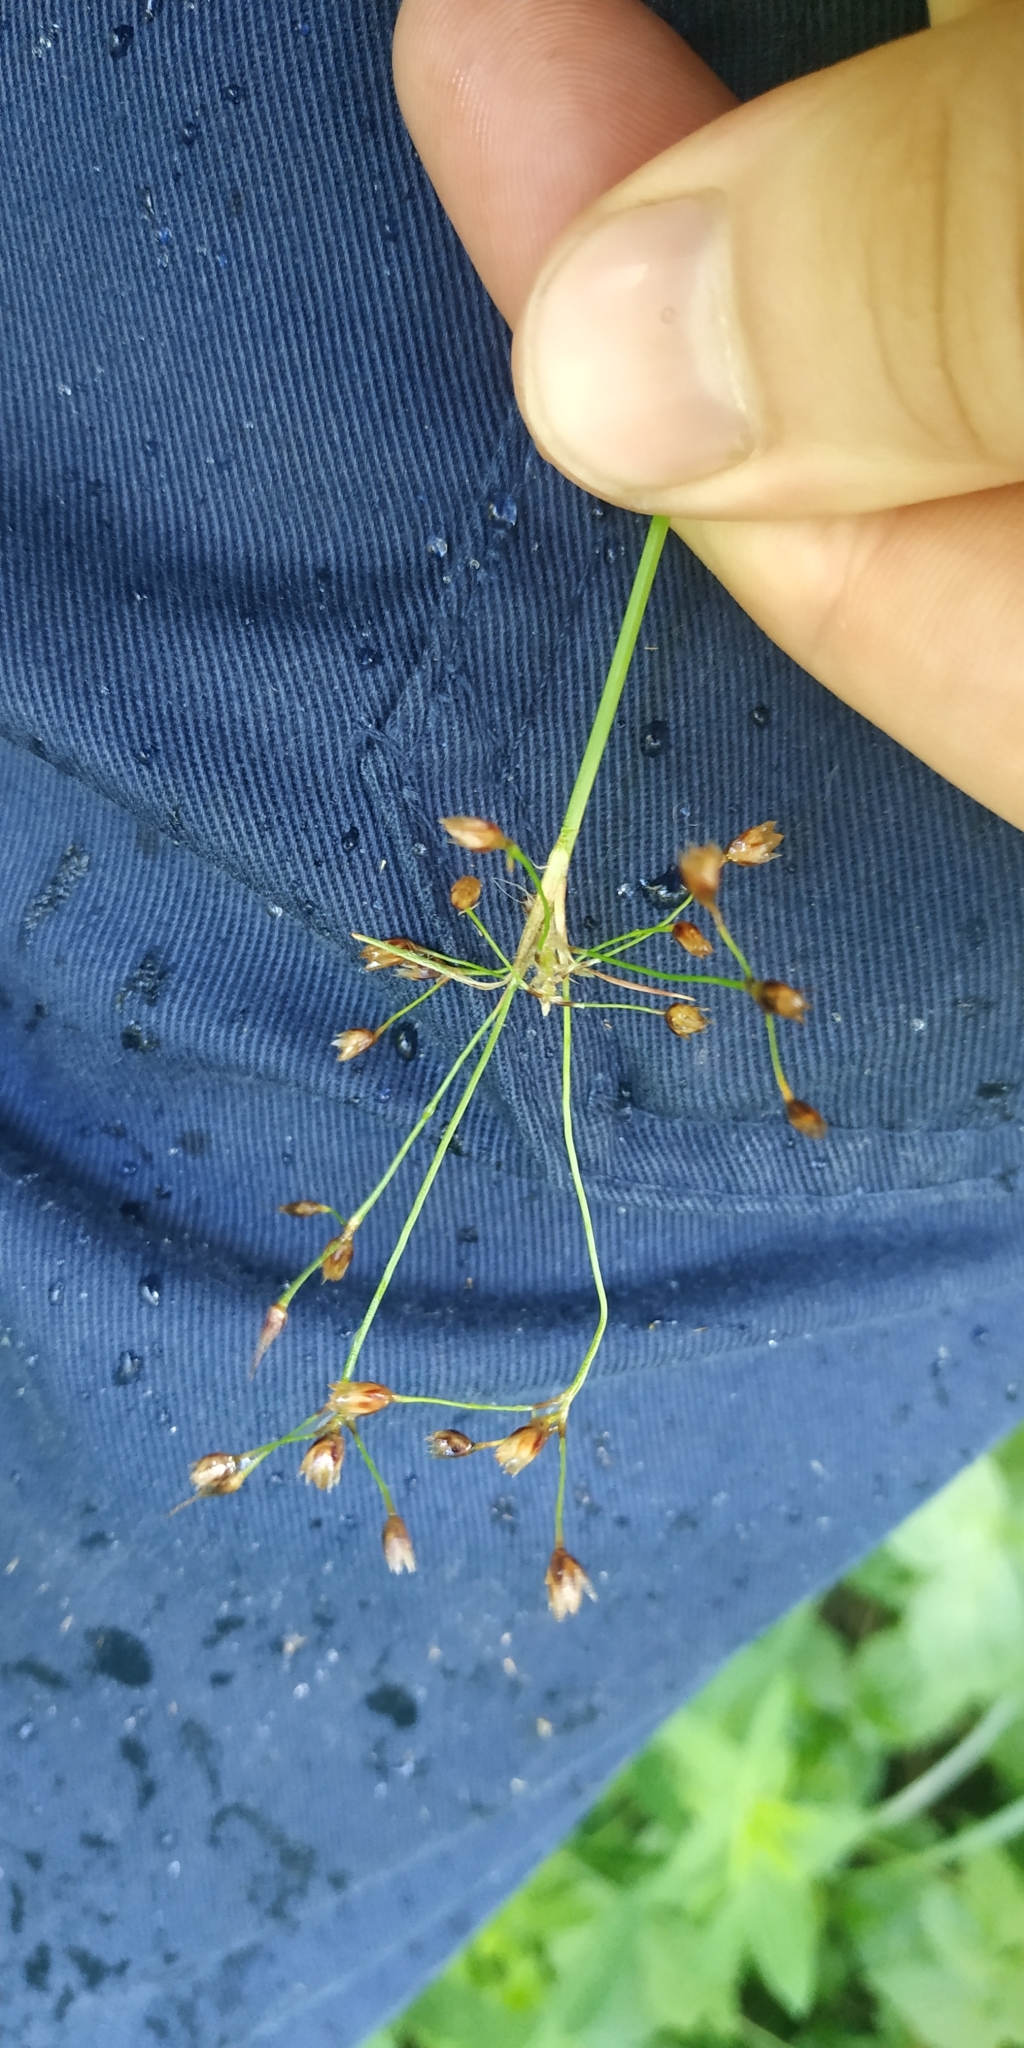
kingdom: Plantae
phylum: Tracheophyta
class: Liliopsida
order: Poales
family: Juncaceae
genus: Luzula
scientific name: Luzula pilosa
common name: Hairy wood-rush
